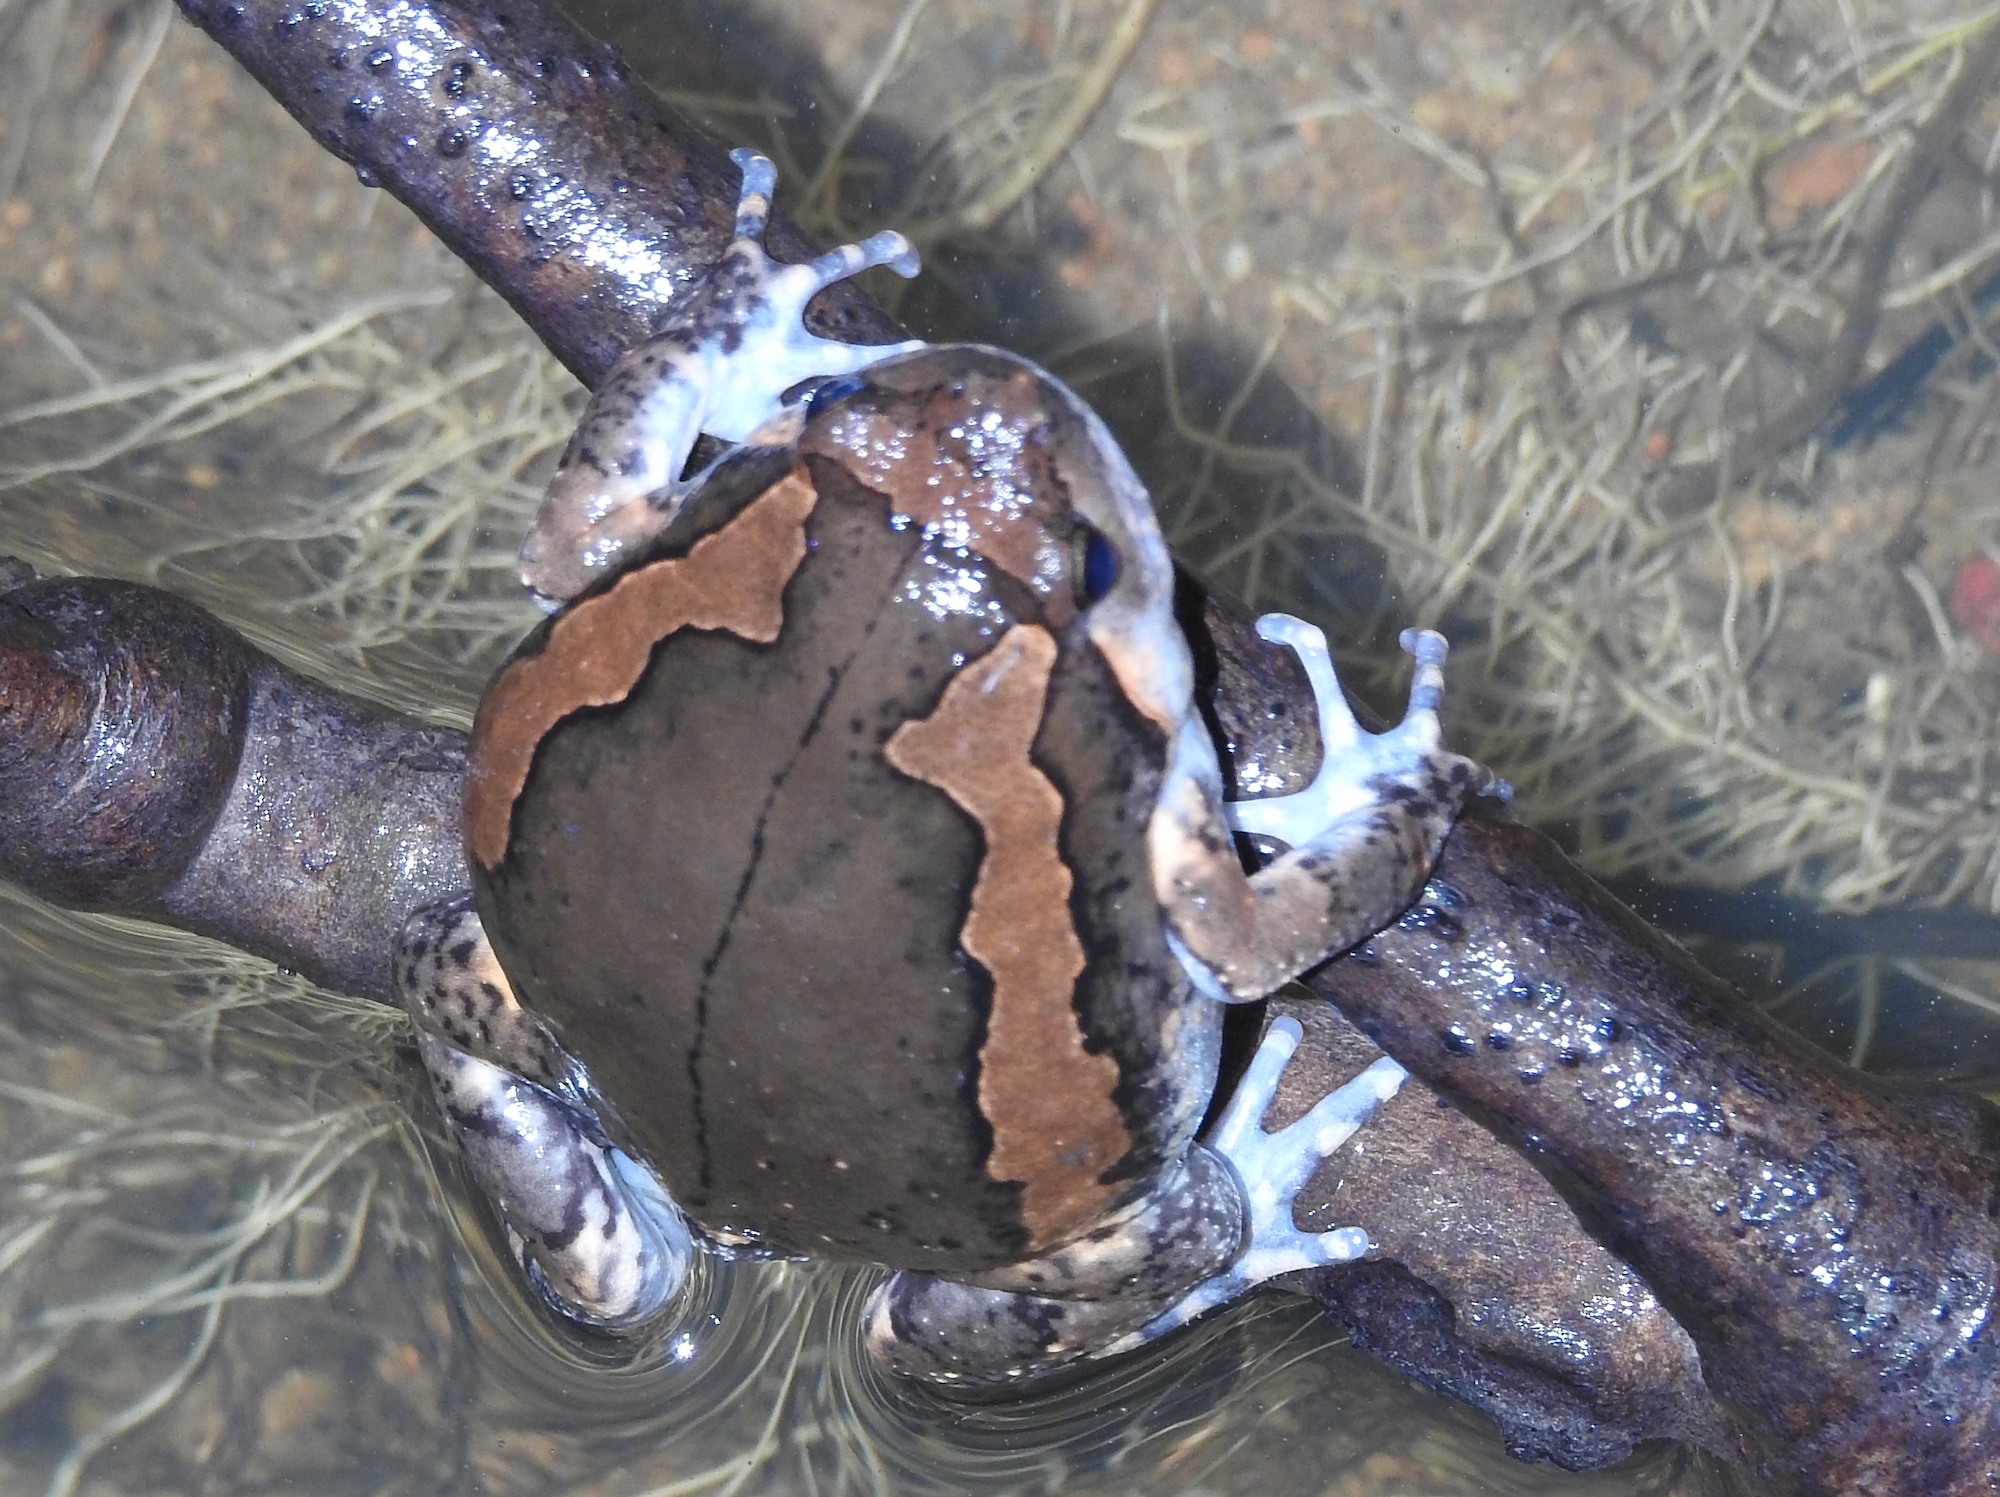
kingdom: Animalia
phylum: Chordata
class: Amphibia
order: Anura
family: Microhylidae
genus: Kaloula
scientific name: Kaloula pulchra
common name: Common,banded bullfrog
